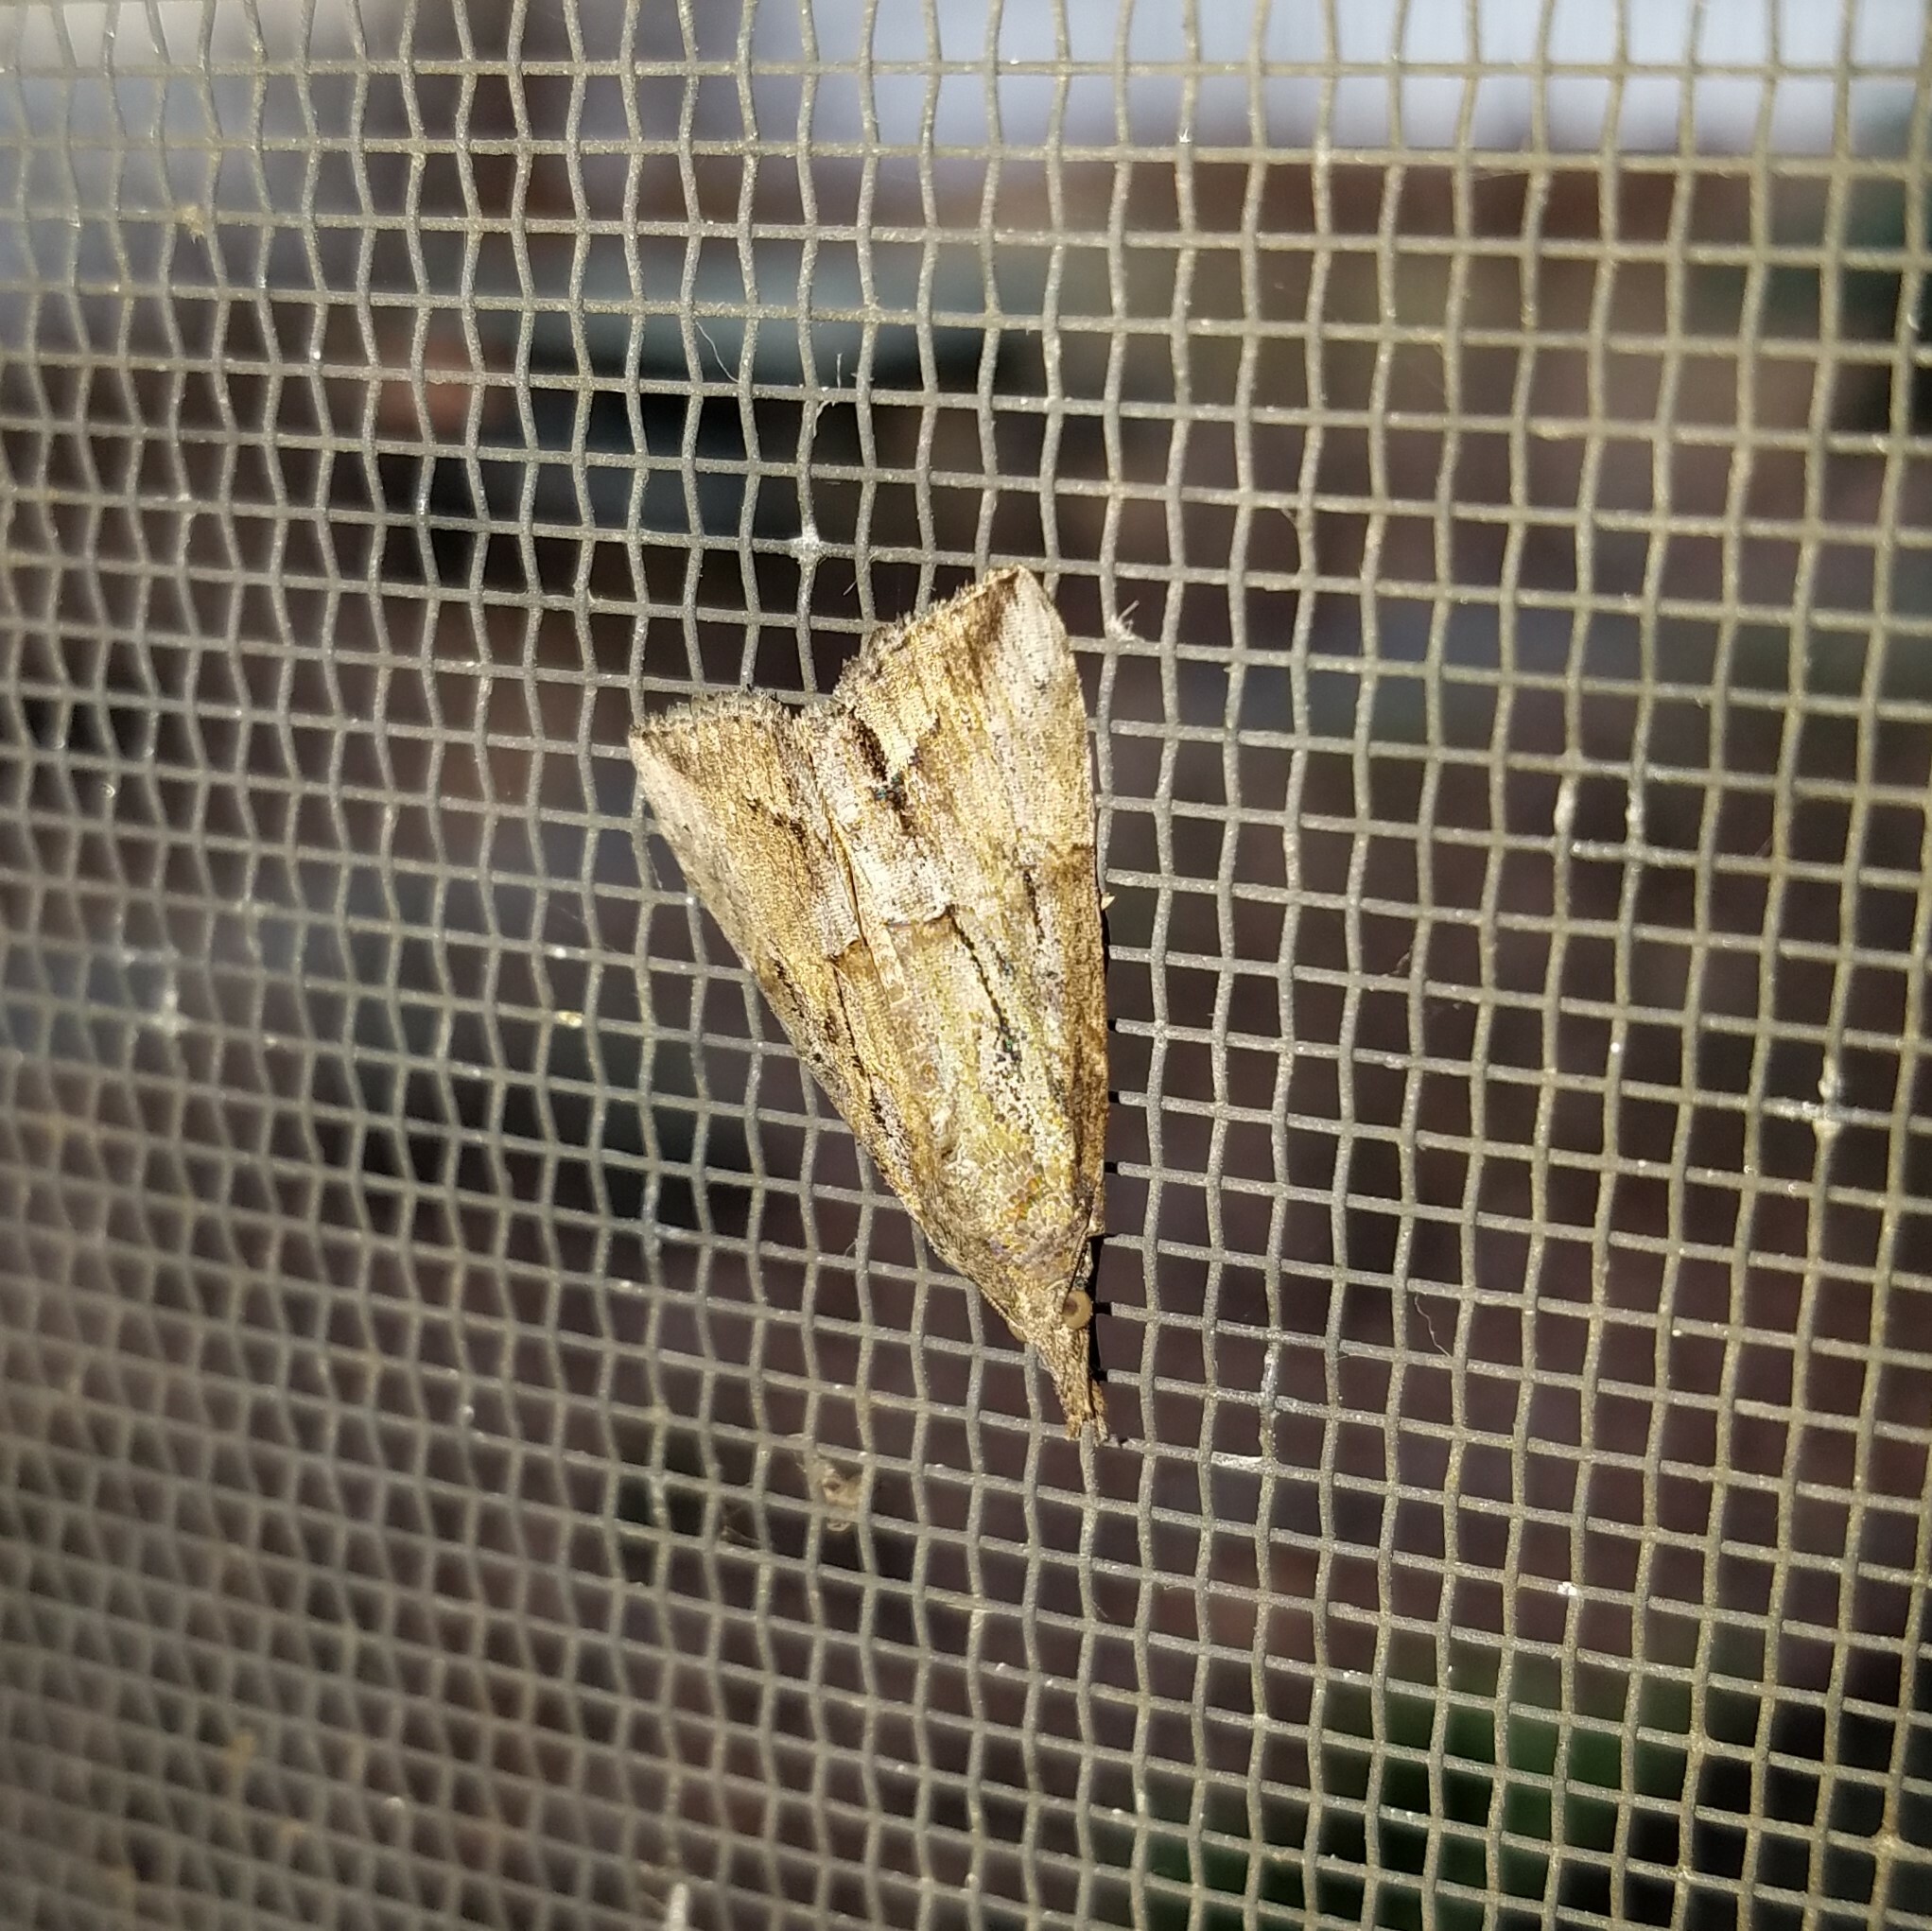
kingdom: Animalia
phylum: Arthropoda
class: Insecta
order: Lepidoptera
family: Erebidae
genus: Hypena
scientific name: Hypena scabra
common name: Green cloverworm
